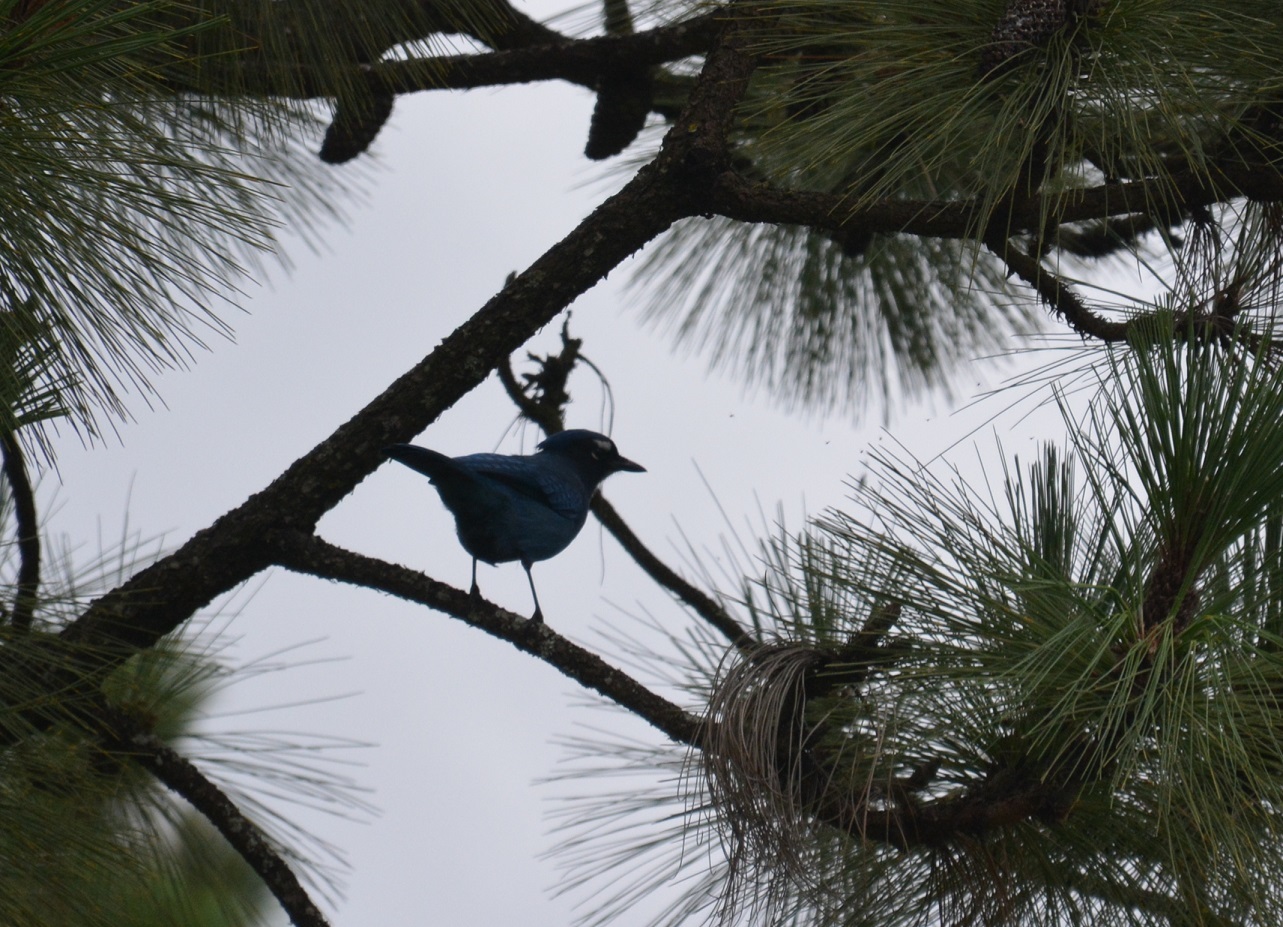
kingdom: Animalia
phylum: Chordata
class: Aves
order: Passeriformes
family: Corvidae
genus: Cyanocitta
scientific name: Cyanocitta stelleri
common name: Steller's jay
